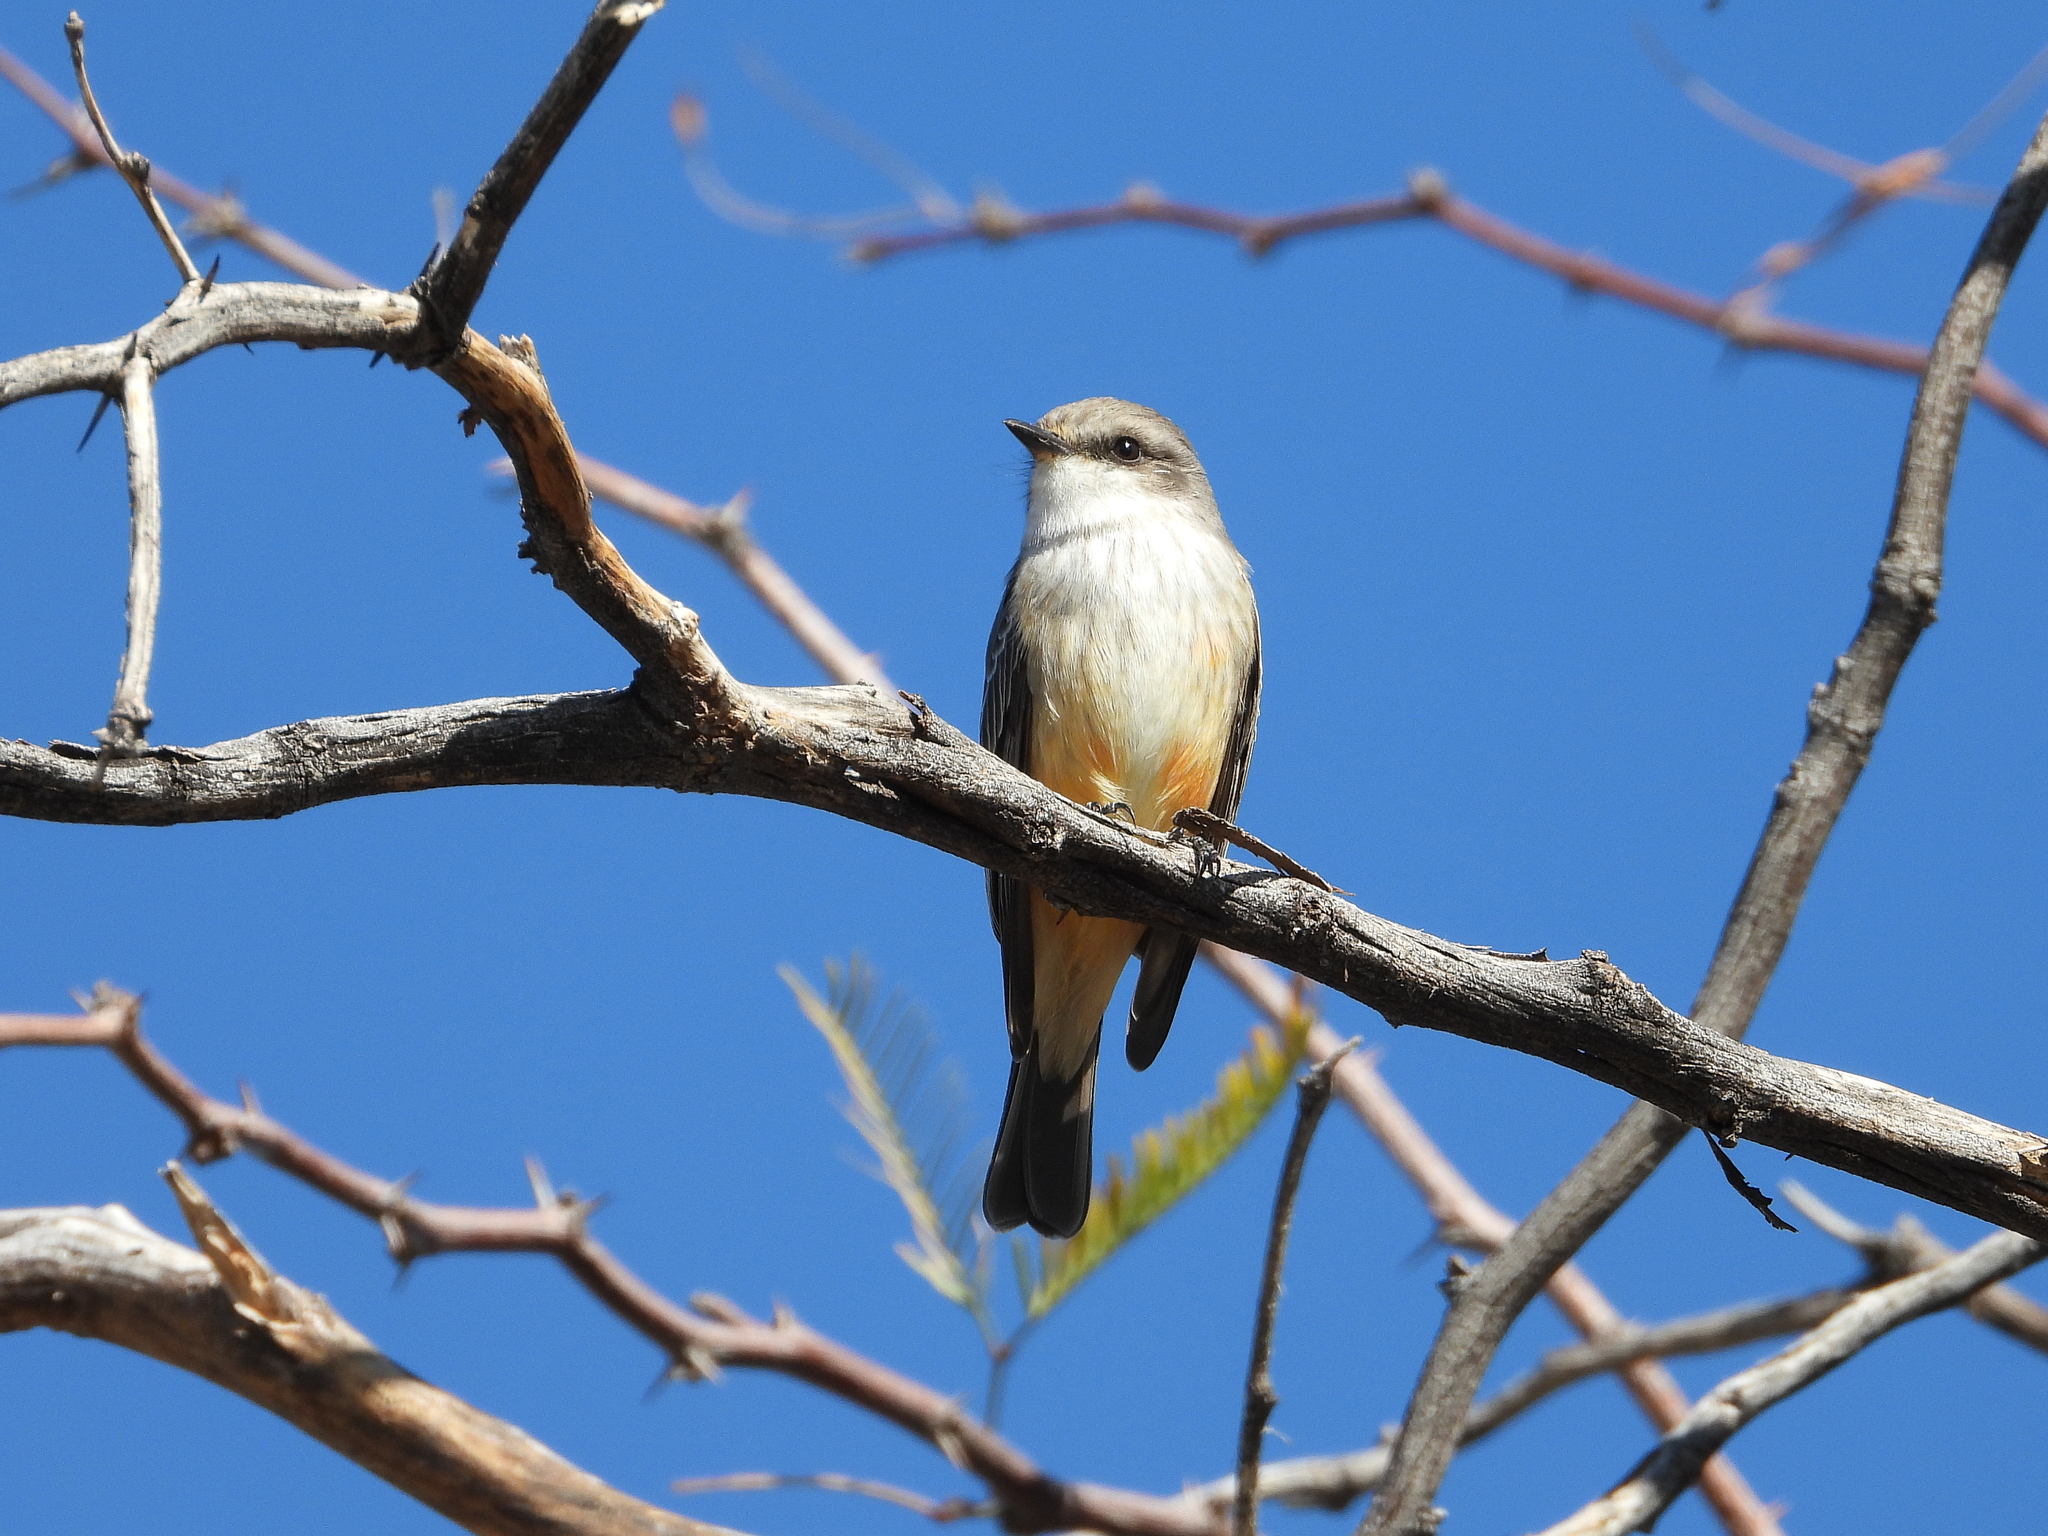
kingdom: Animalia
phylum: Chordata
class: Aves
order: Passeriformes
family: Tyrannidae
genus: Pyrocephalus
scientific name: Pyrocephalus rubinus
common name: Vermilion flycatcher
